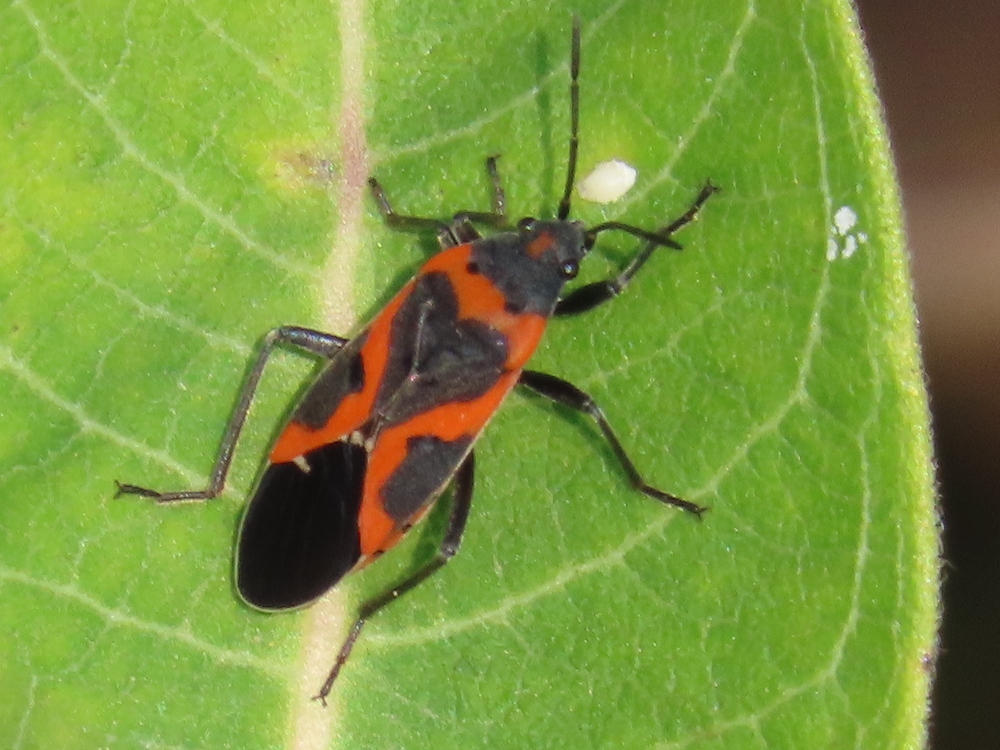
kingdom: Animalia
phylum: Arthropoda
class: Insecta
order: Hemiptera
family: Lygaeidae
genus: Lygaeus
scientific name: Lygaeus kalmii
